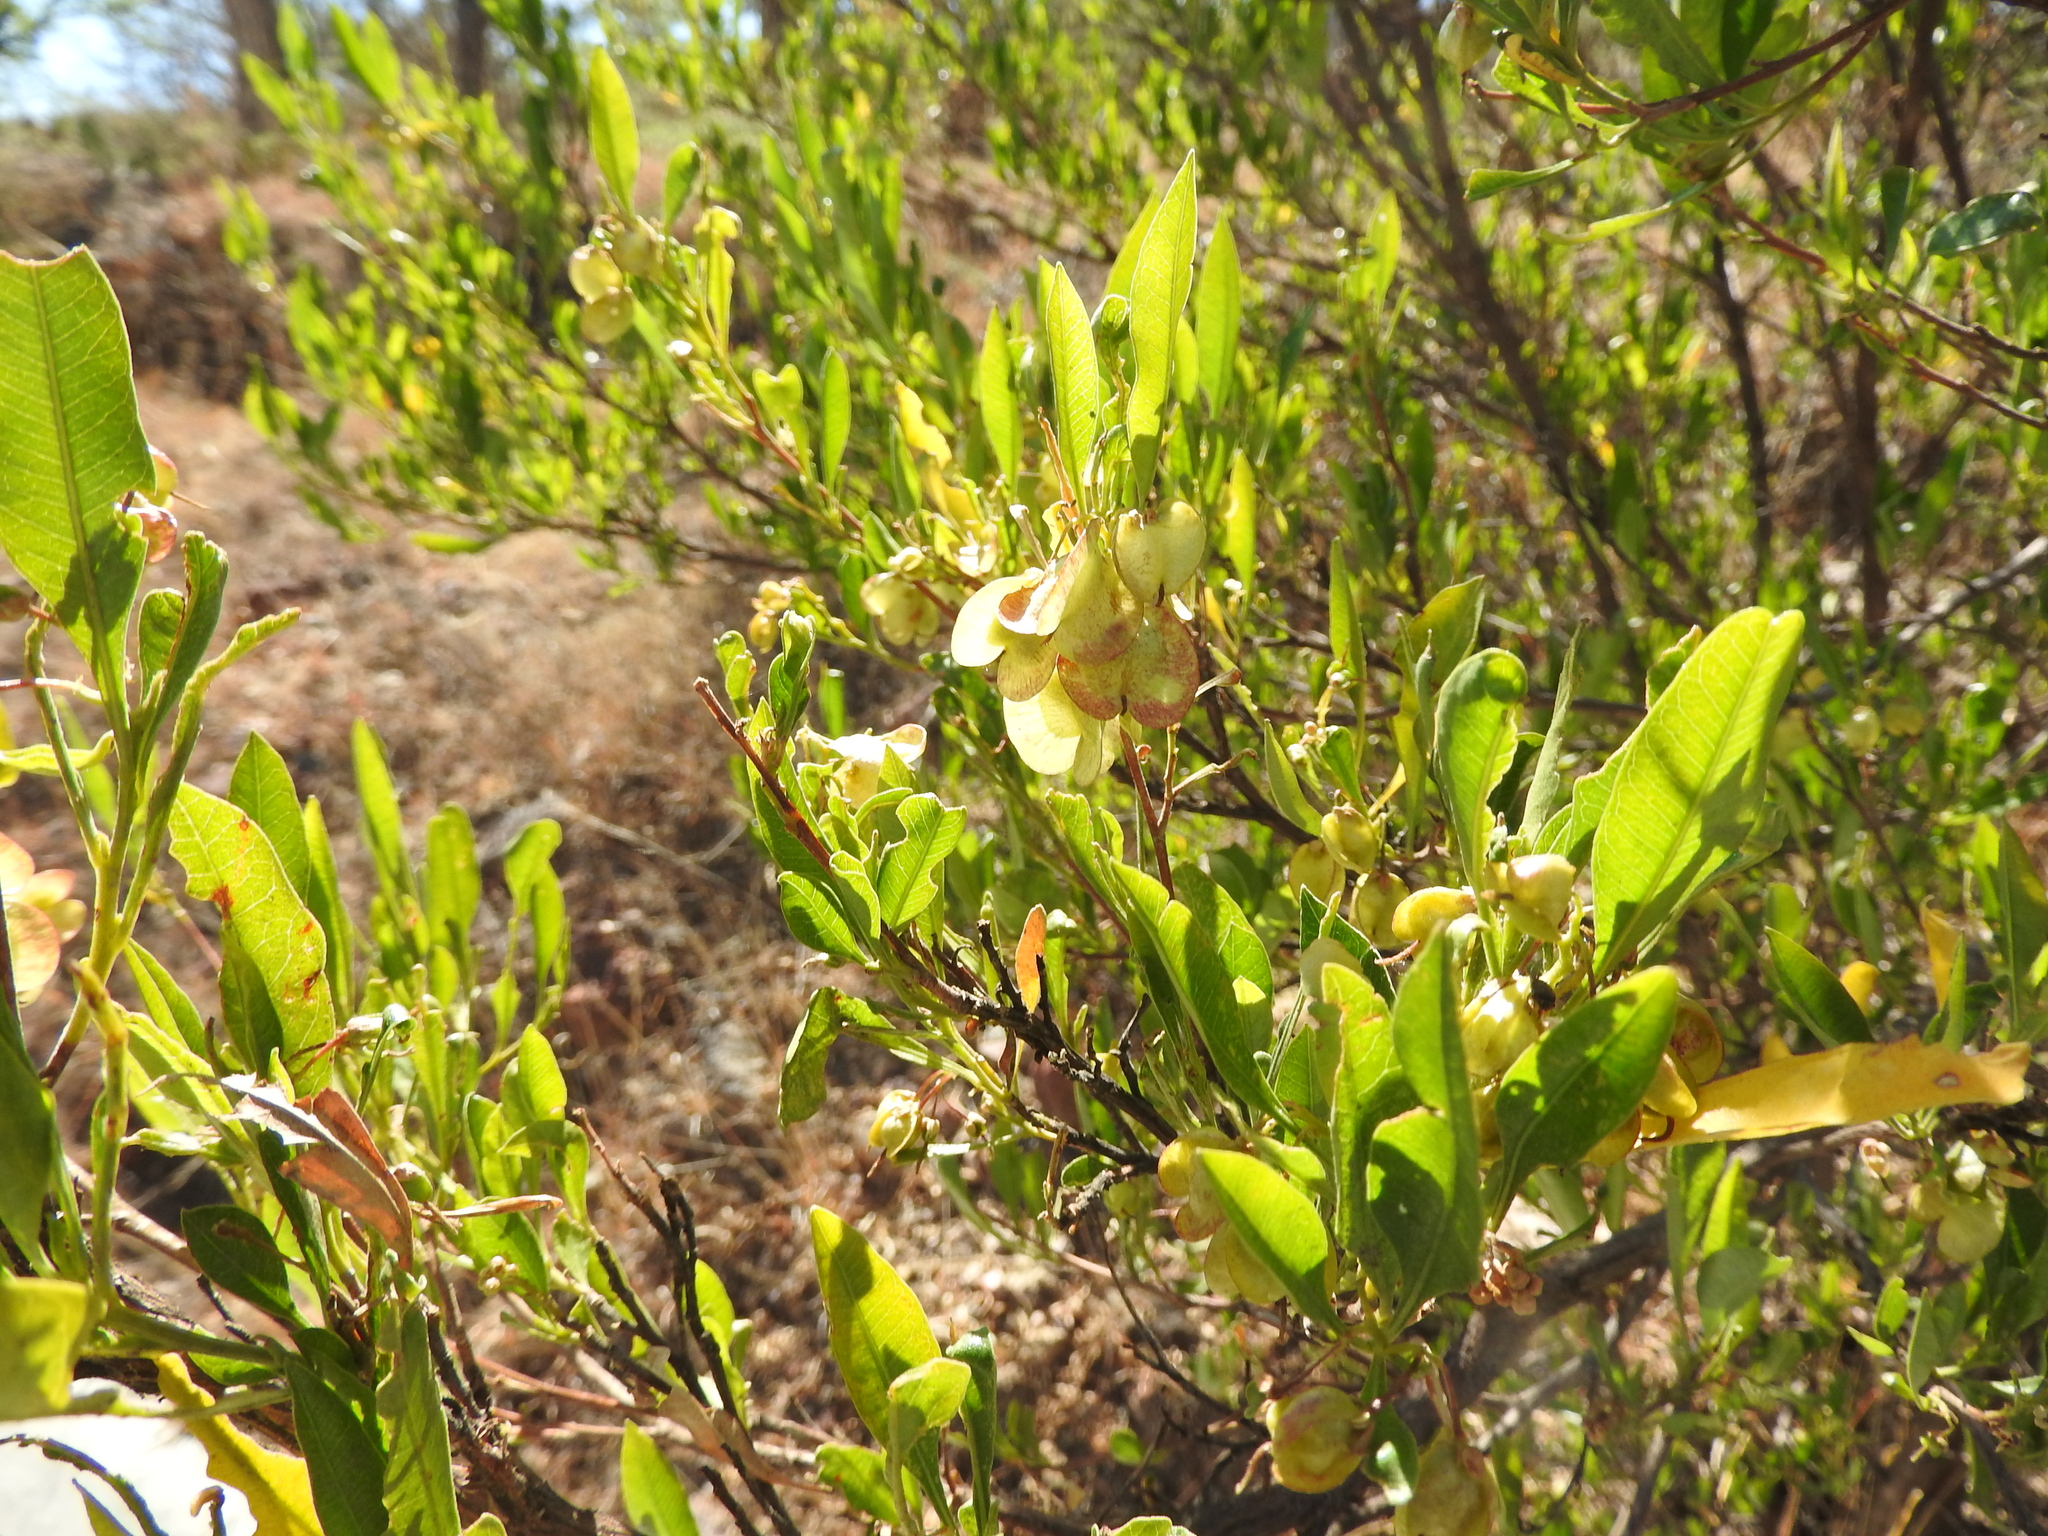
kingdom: Plantae
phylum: Tracheophyta
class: Magnoliopsida
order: Sapindales
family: Sapindaceae
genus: Dodonaea
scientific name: Dodonaea viscosa
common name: Hopbush
